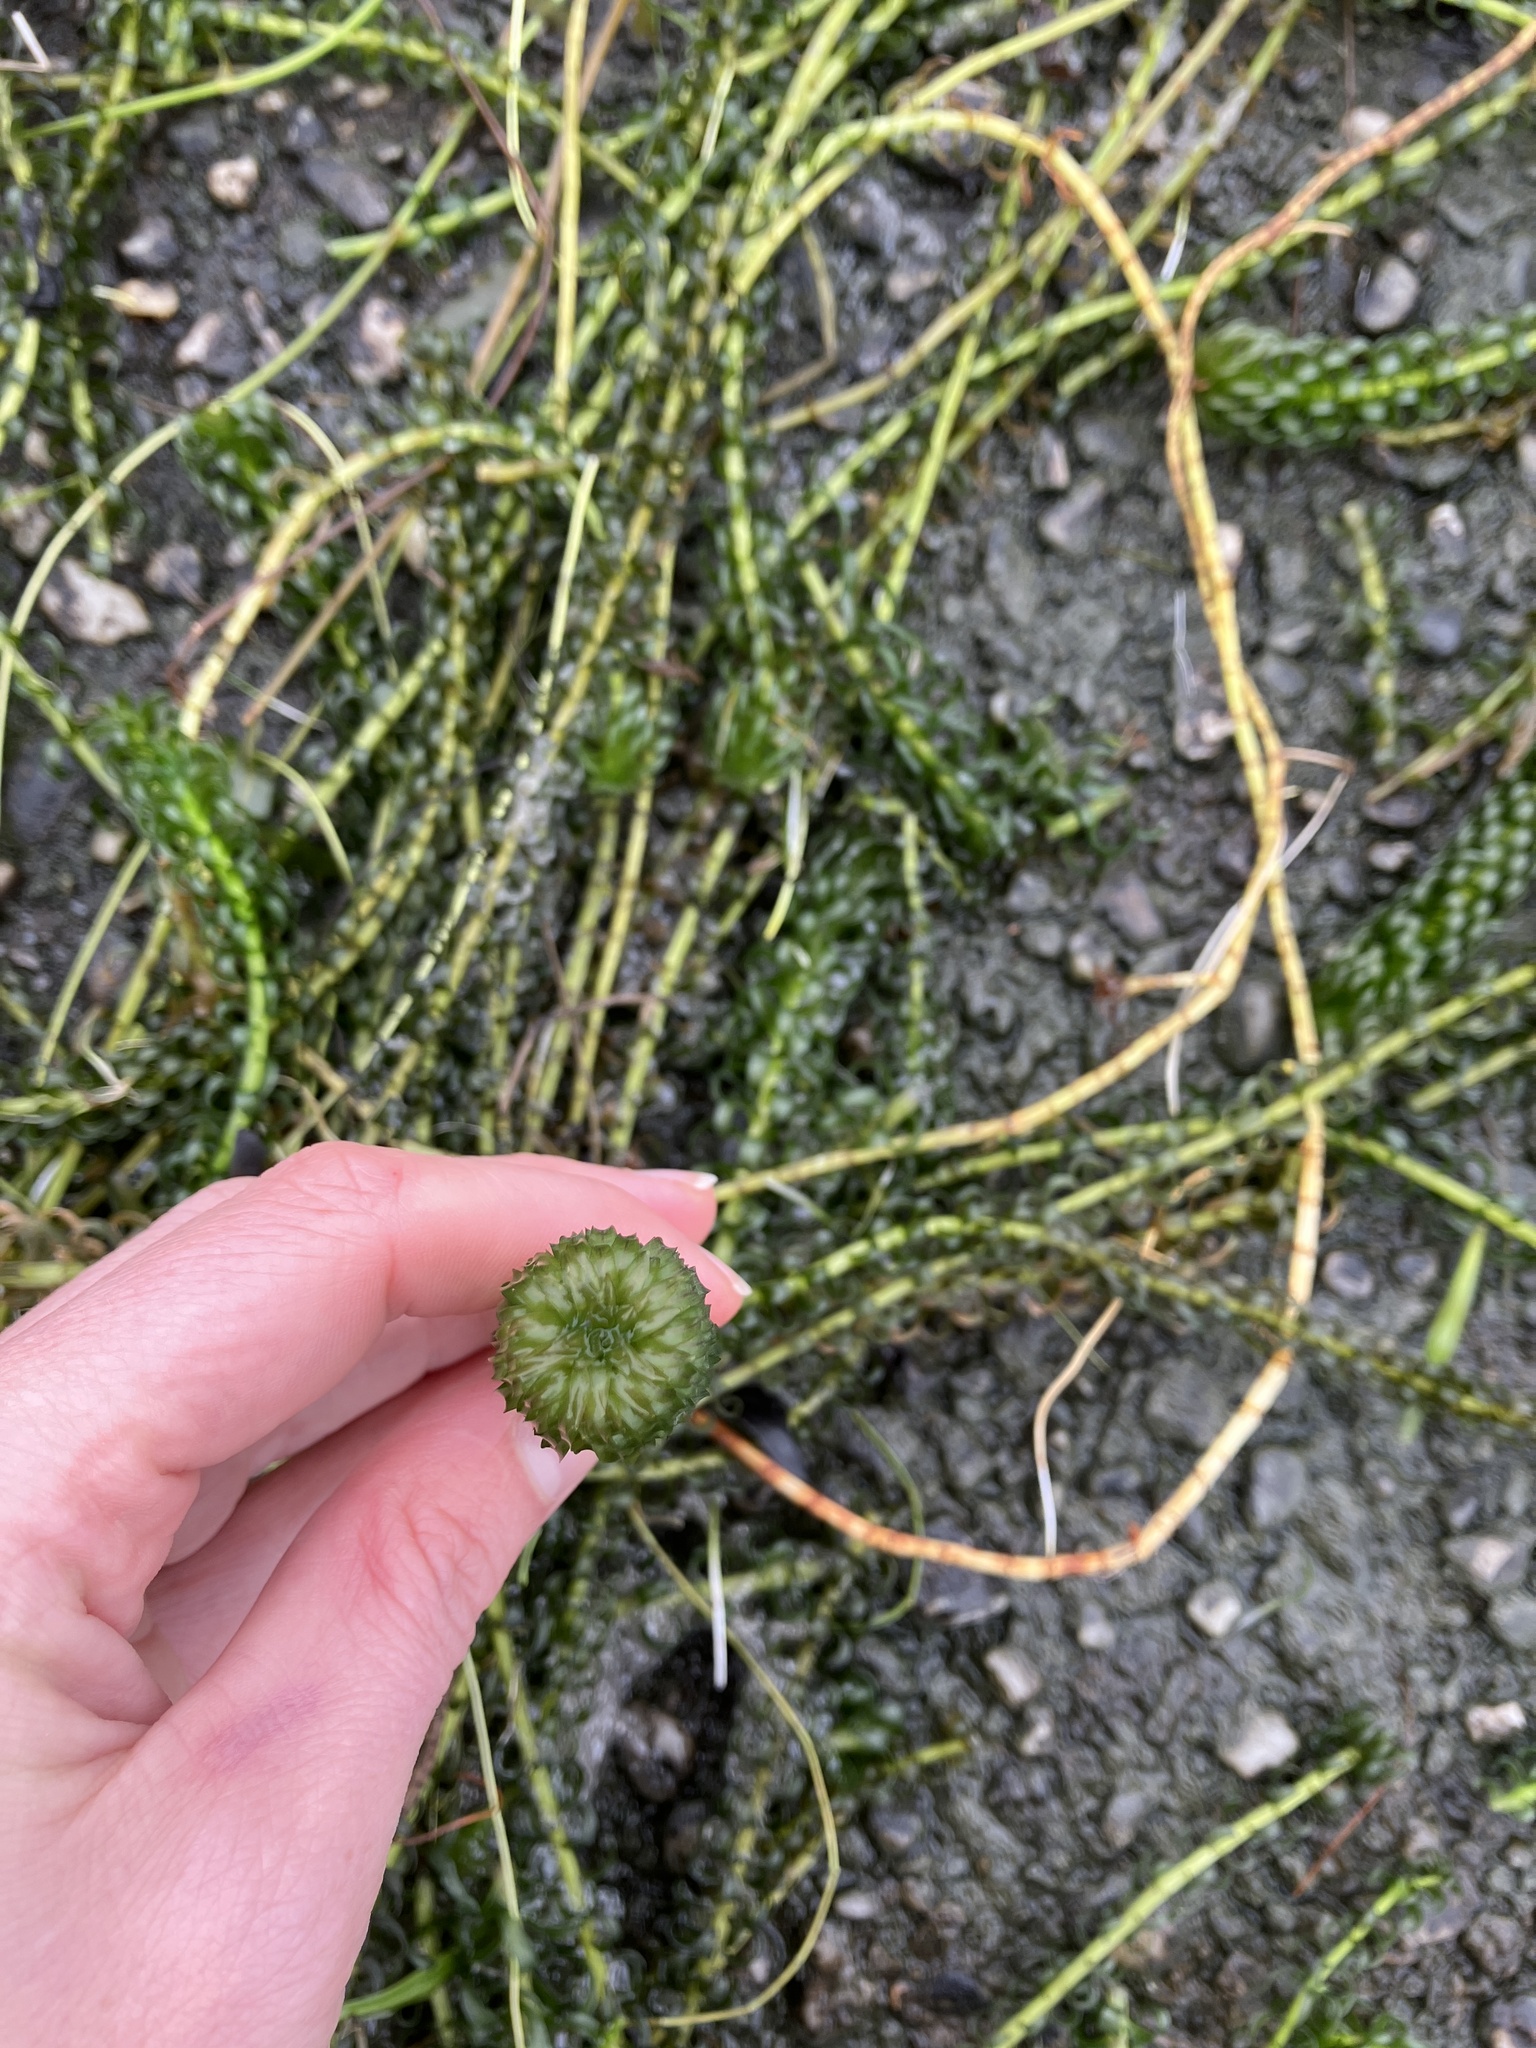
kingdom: Plantae
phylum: Tracheophyta
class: Liliopsida
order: Alismatales
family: Hydrocharitaceae
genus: Lagarosiphon
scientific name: Lagarosiphon major
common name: Curly waterweed
